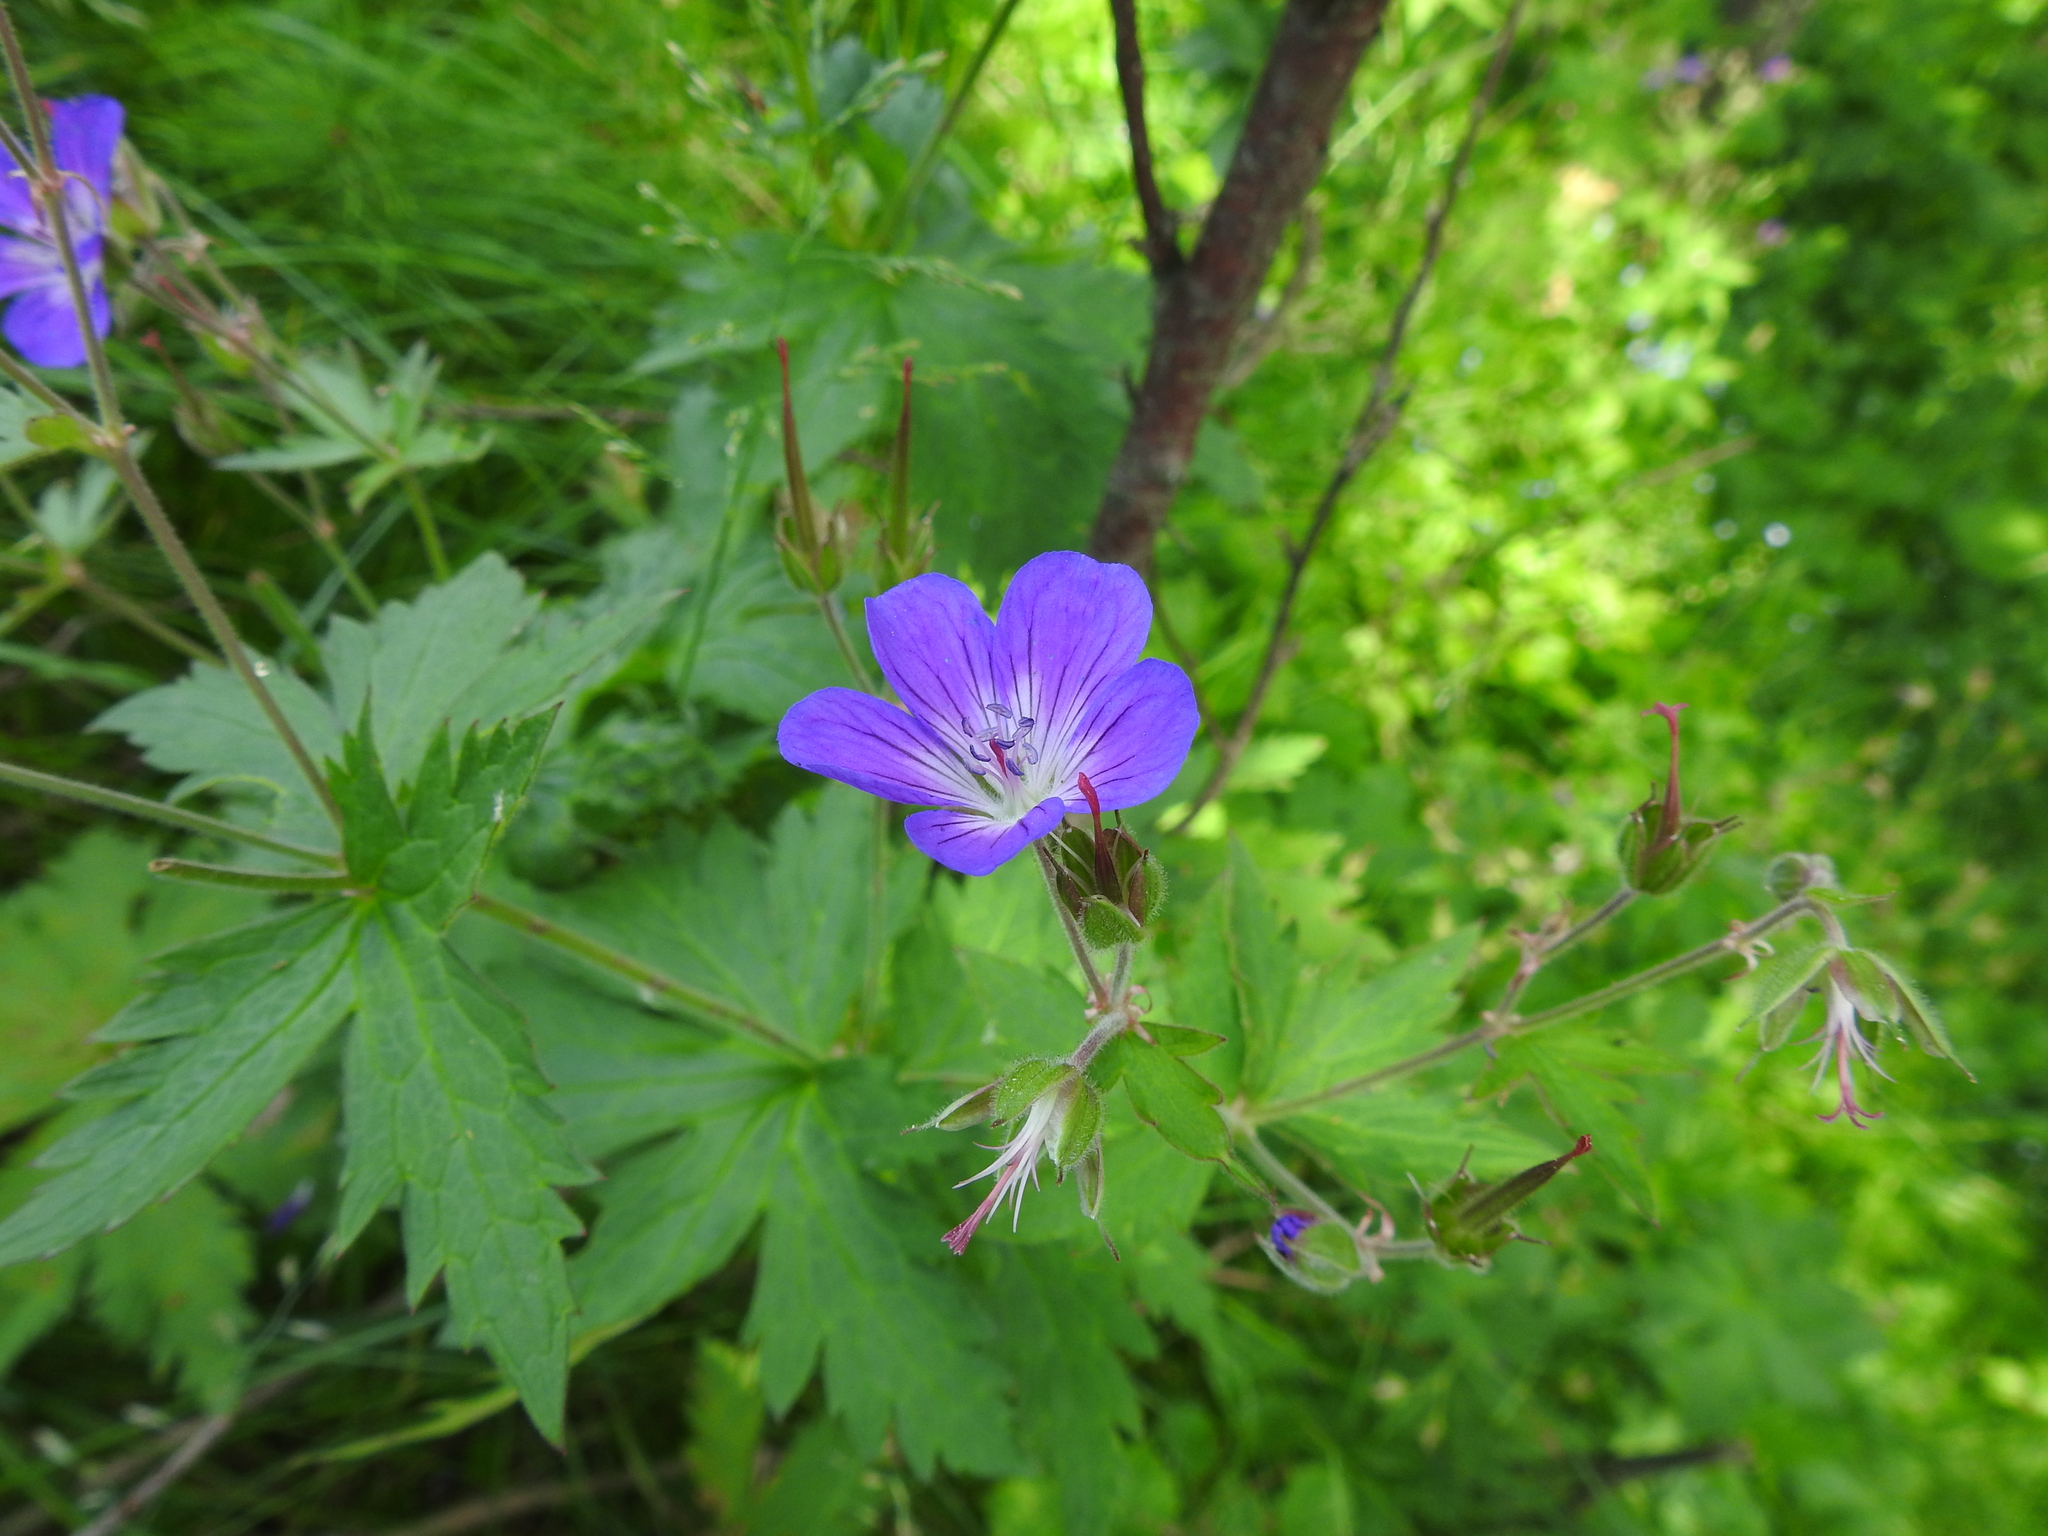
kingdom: Plantae
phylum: Tracheophyta
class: Magnoliopsida
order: Geraniales
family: Geraniaceae
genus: Geranium
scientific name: Geranium sylvaticum
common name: Wood crane's-bill
